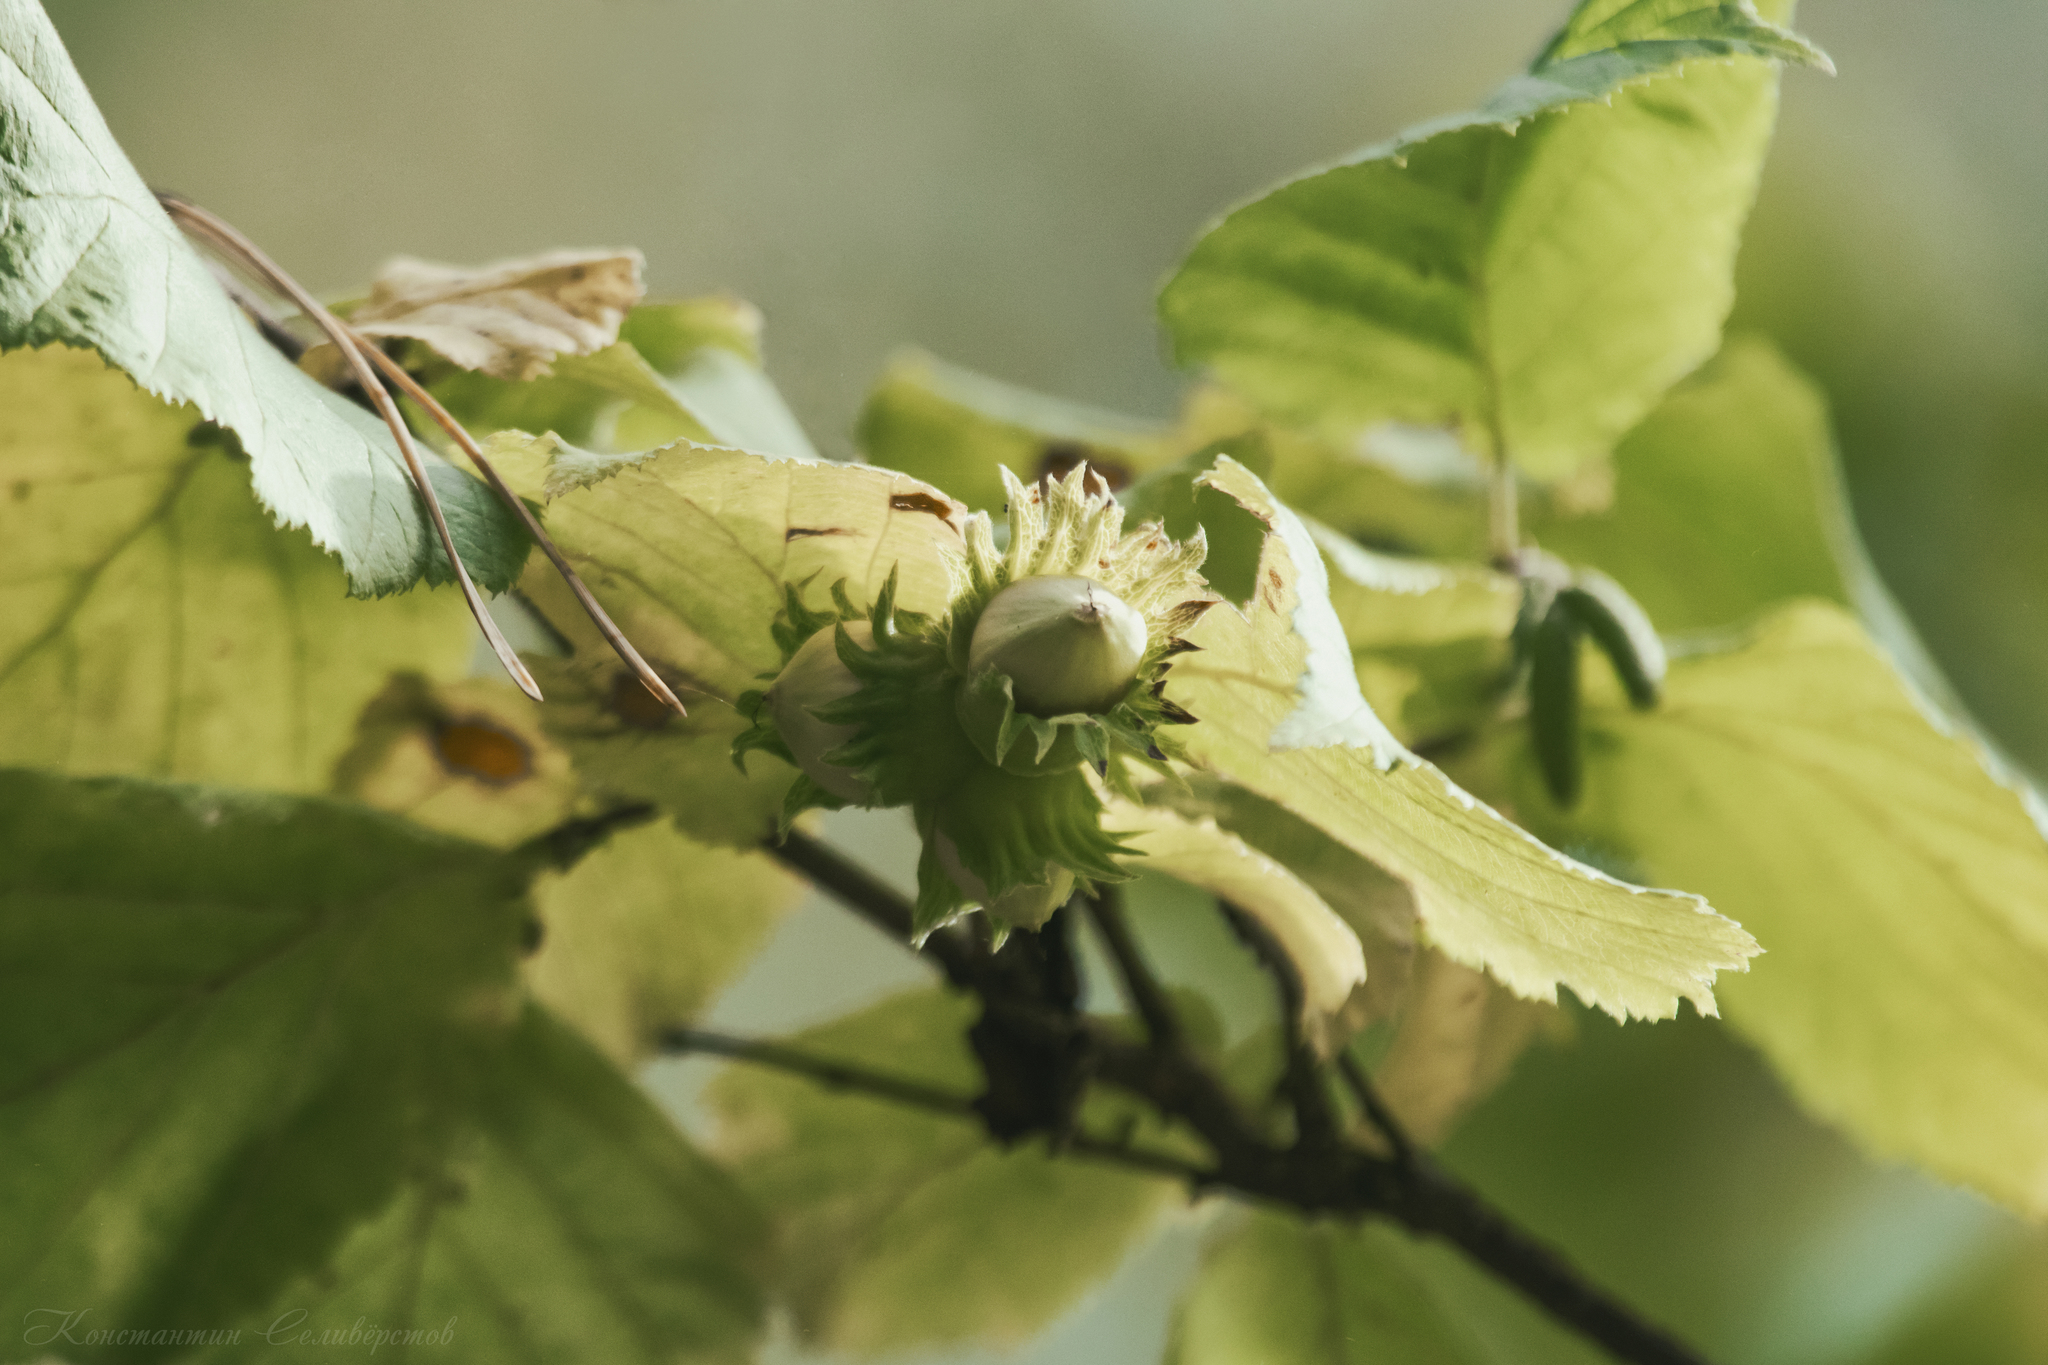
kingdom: Plantae
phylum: Tracheophyta
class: Magnoliopsida
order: Fagales
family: Betulaceae
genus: Corylus
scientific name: Corylus avellana
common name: European hazel
